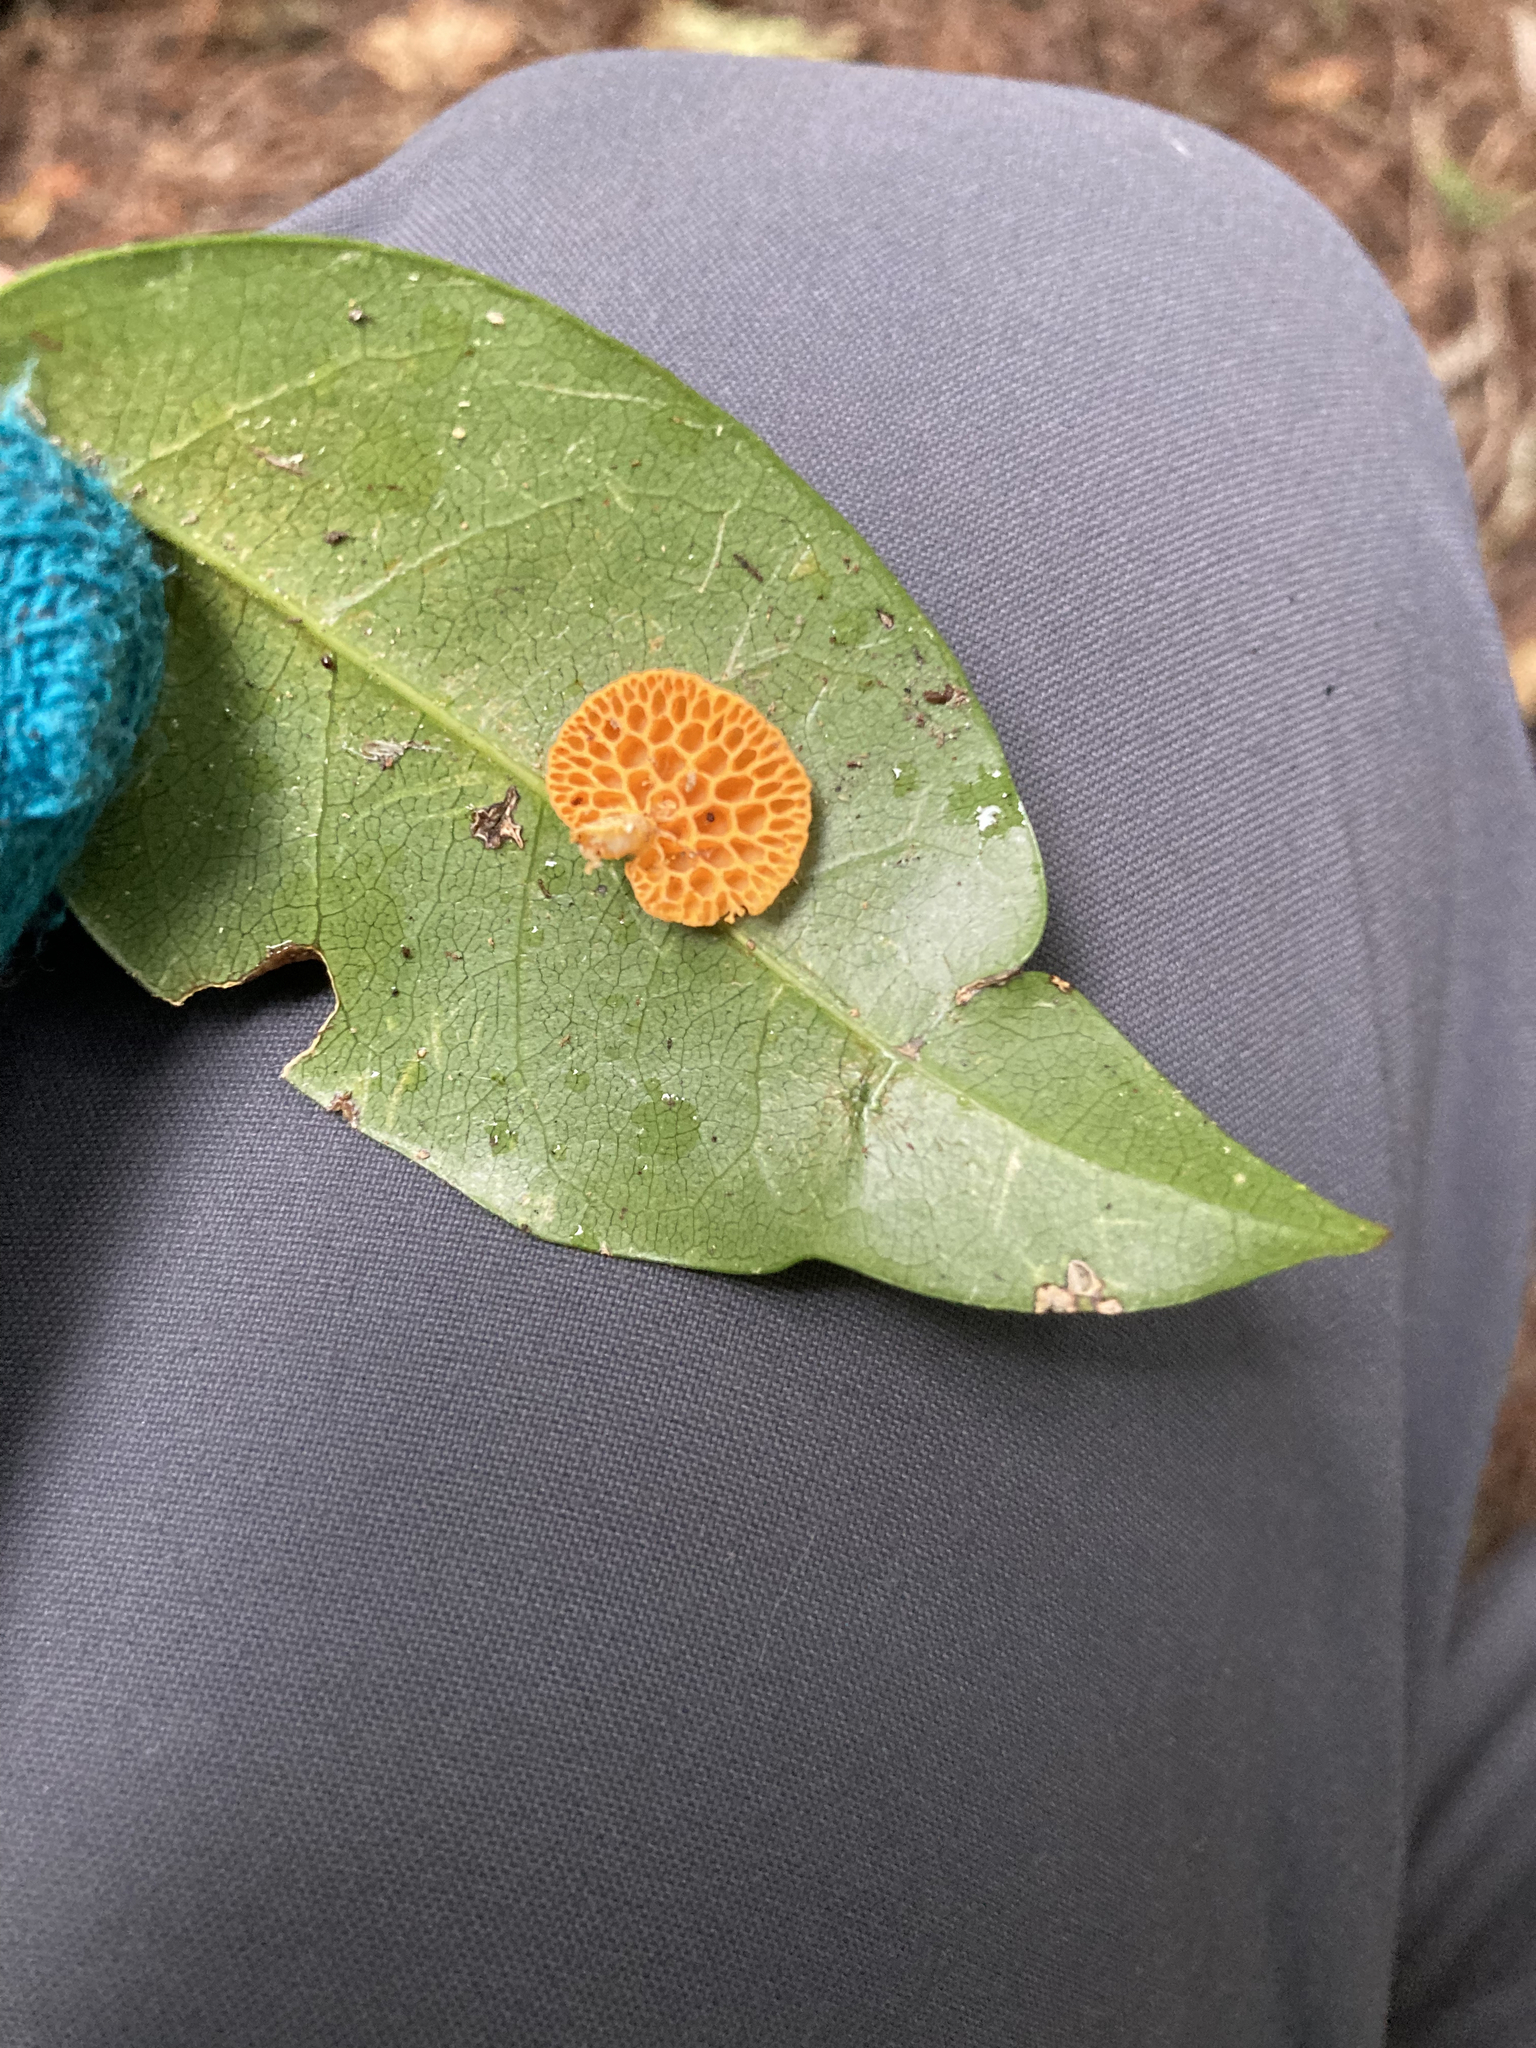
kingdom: Fungi
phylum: Basidiomycota
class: Agaricomycetes
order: Agaricales
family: Mycenaceae
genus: Favolaschia
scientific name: Favolaschia claudopus
